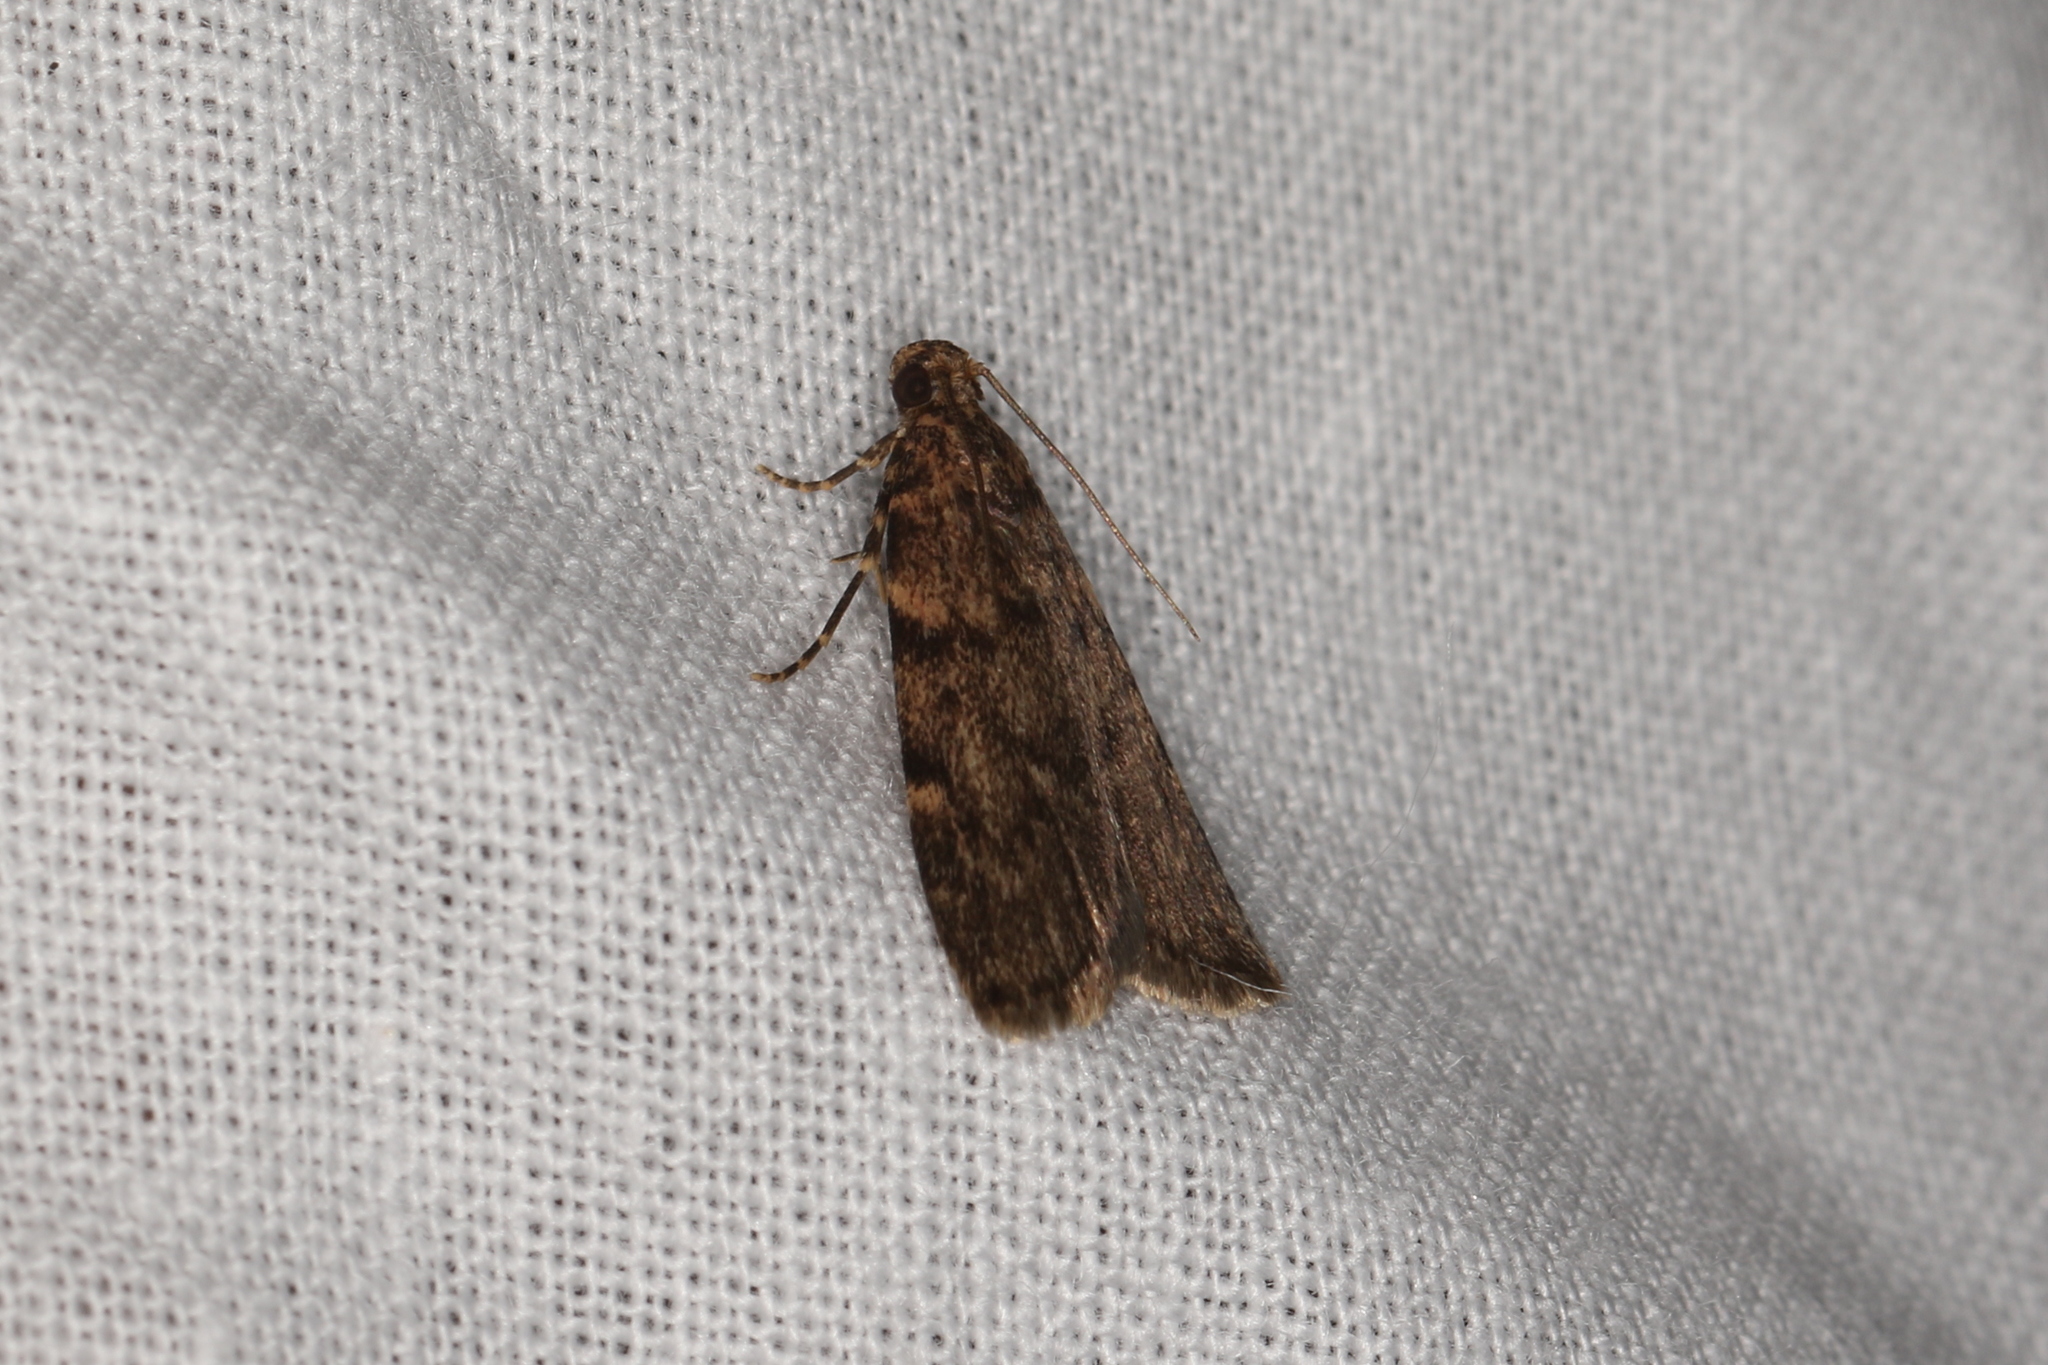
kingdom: Animalia
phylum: Arthropoda
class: Insecta
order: Lepidoptera
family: Pyralidae
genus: Mimaglossa
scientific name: Mimaglossa nauplialis
